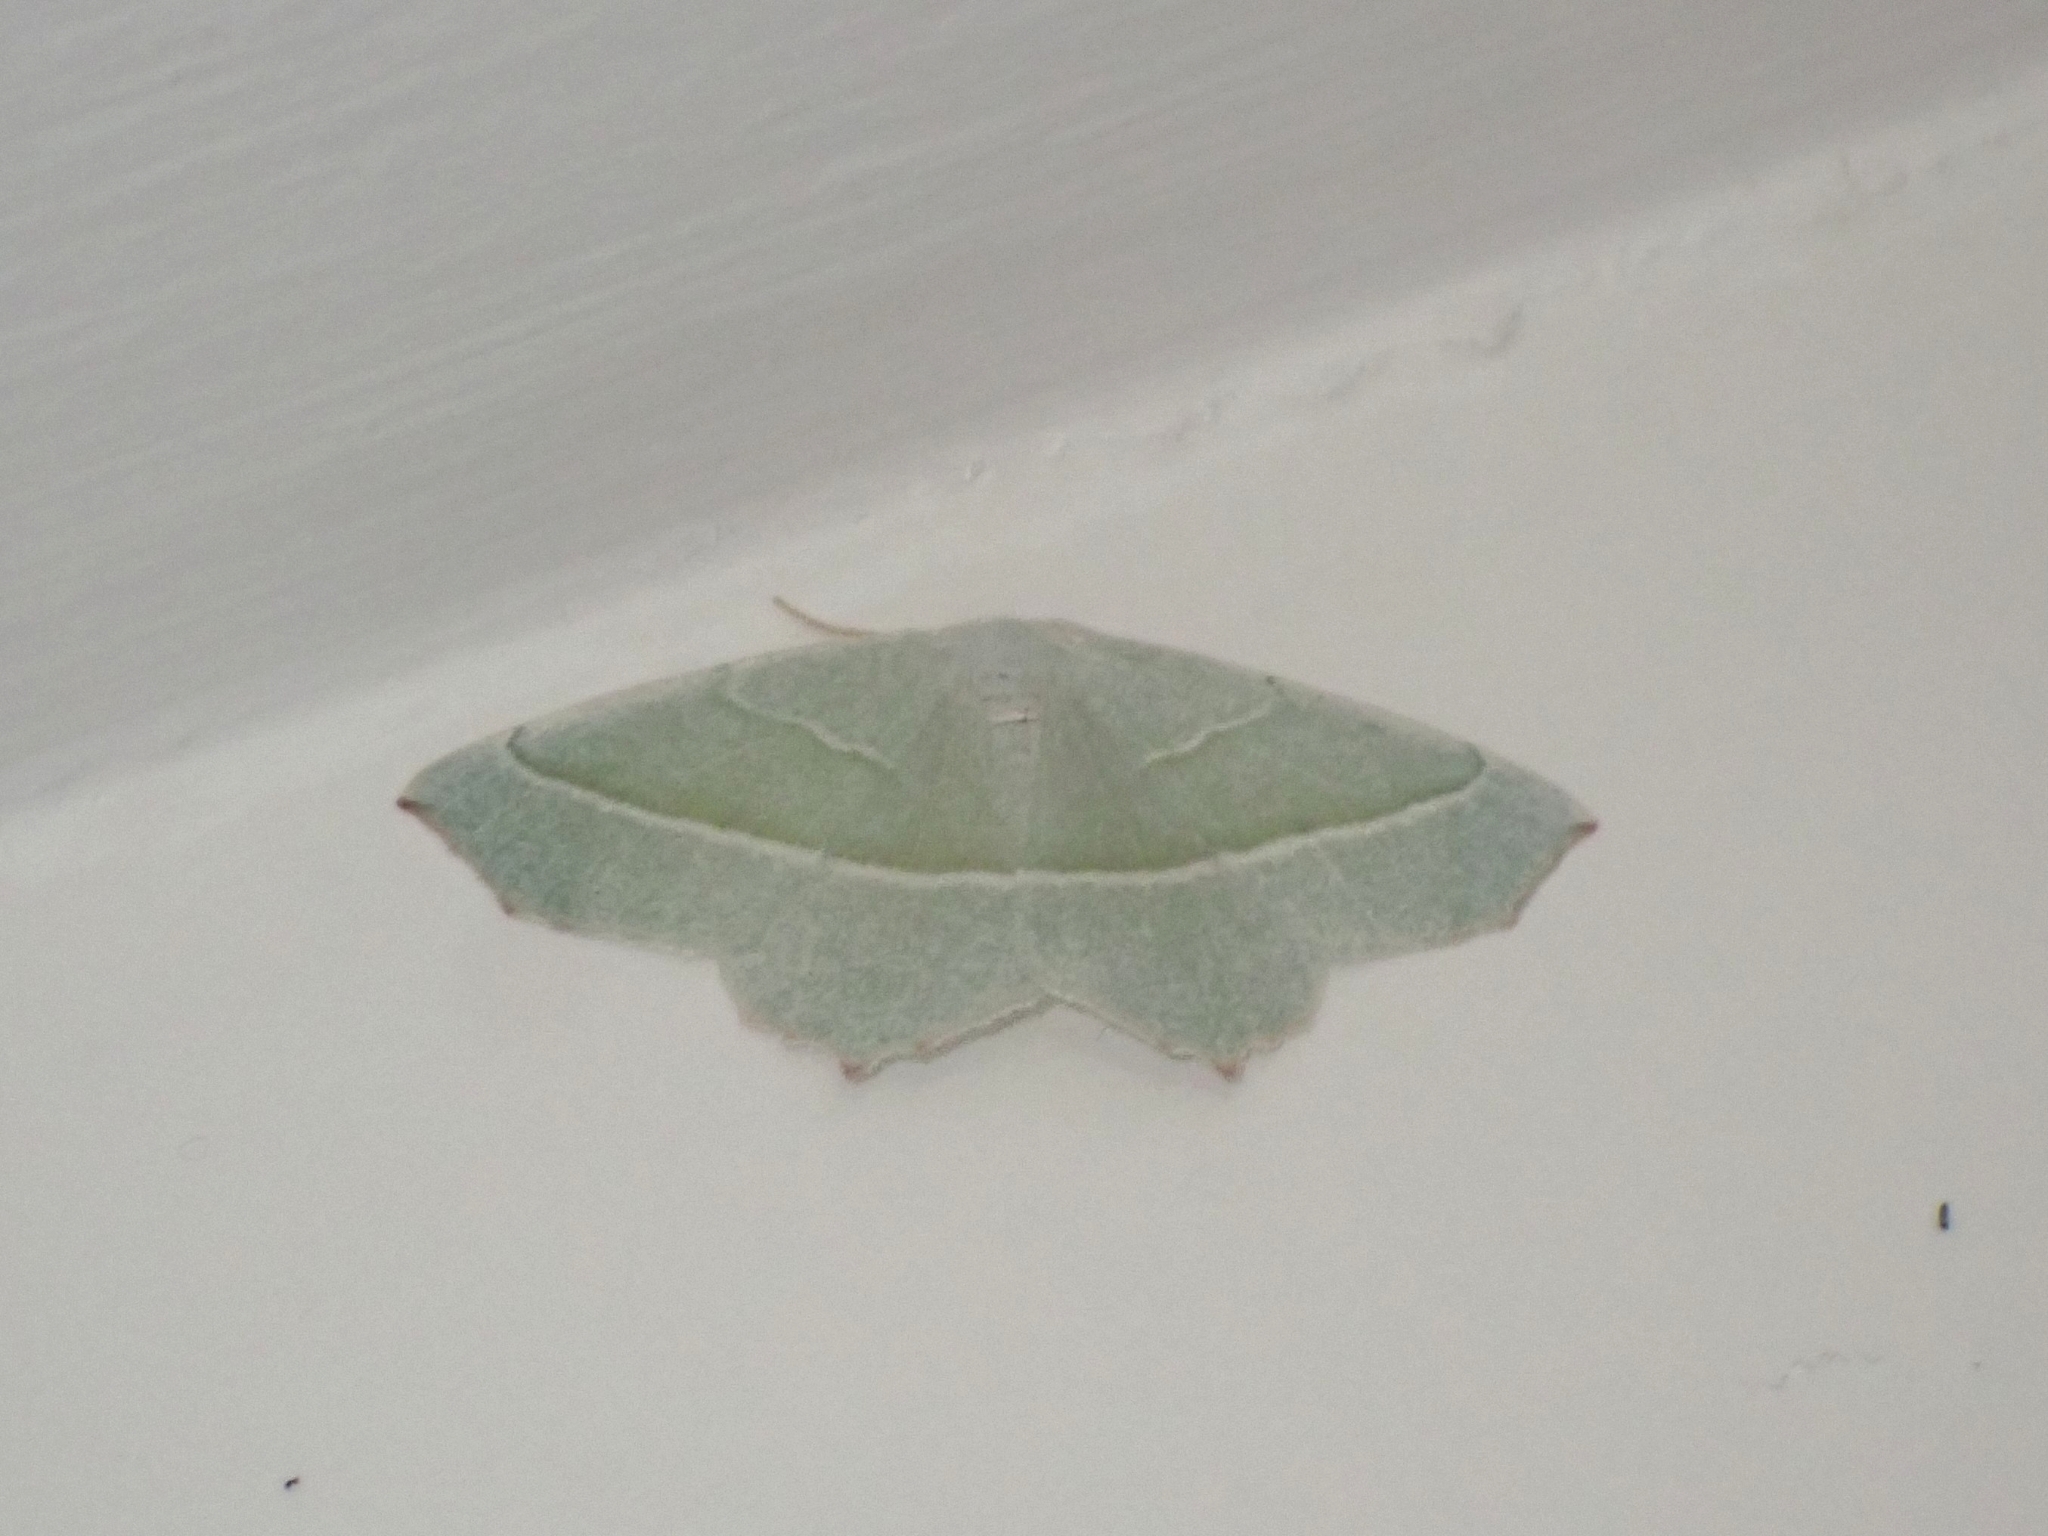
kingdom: Animalia
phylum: Arthropoda
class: Insecta
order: Lepidoptera
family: Geometridae
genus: Campaea
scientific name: Campaea margaritaria
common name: Light emerald
